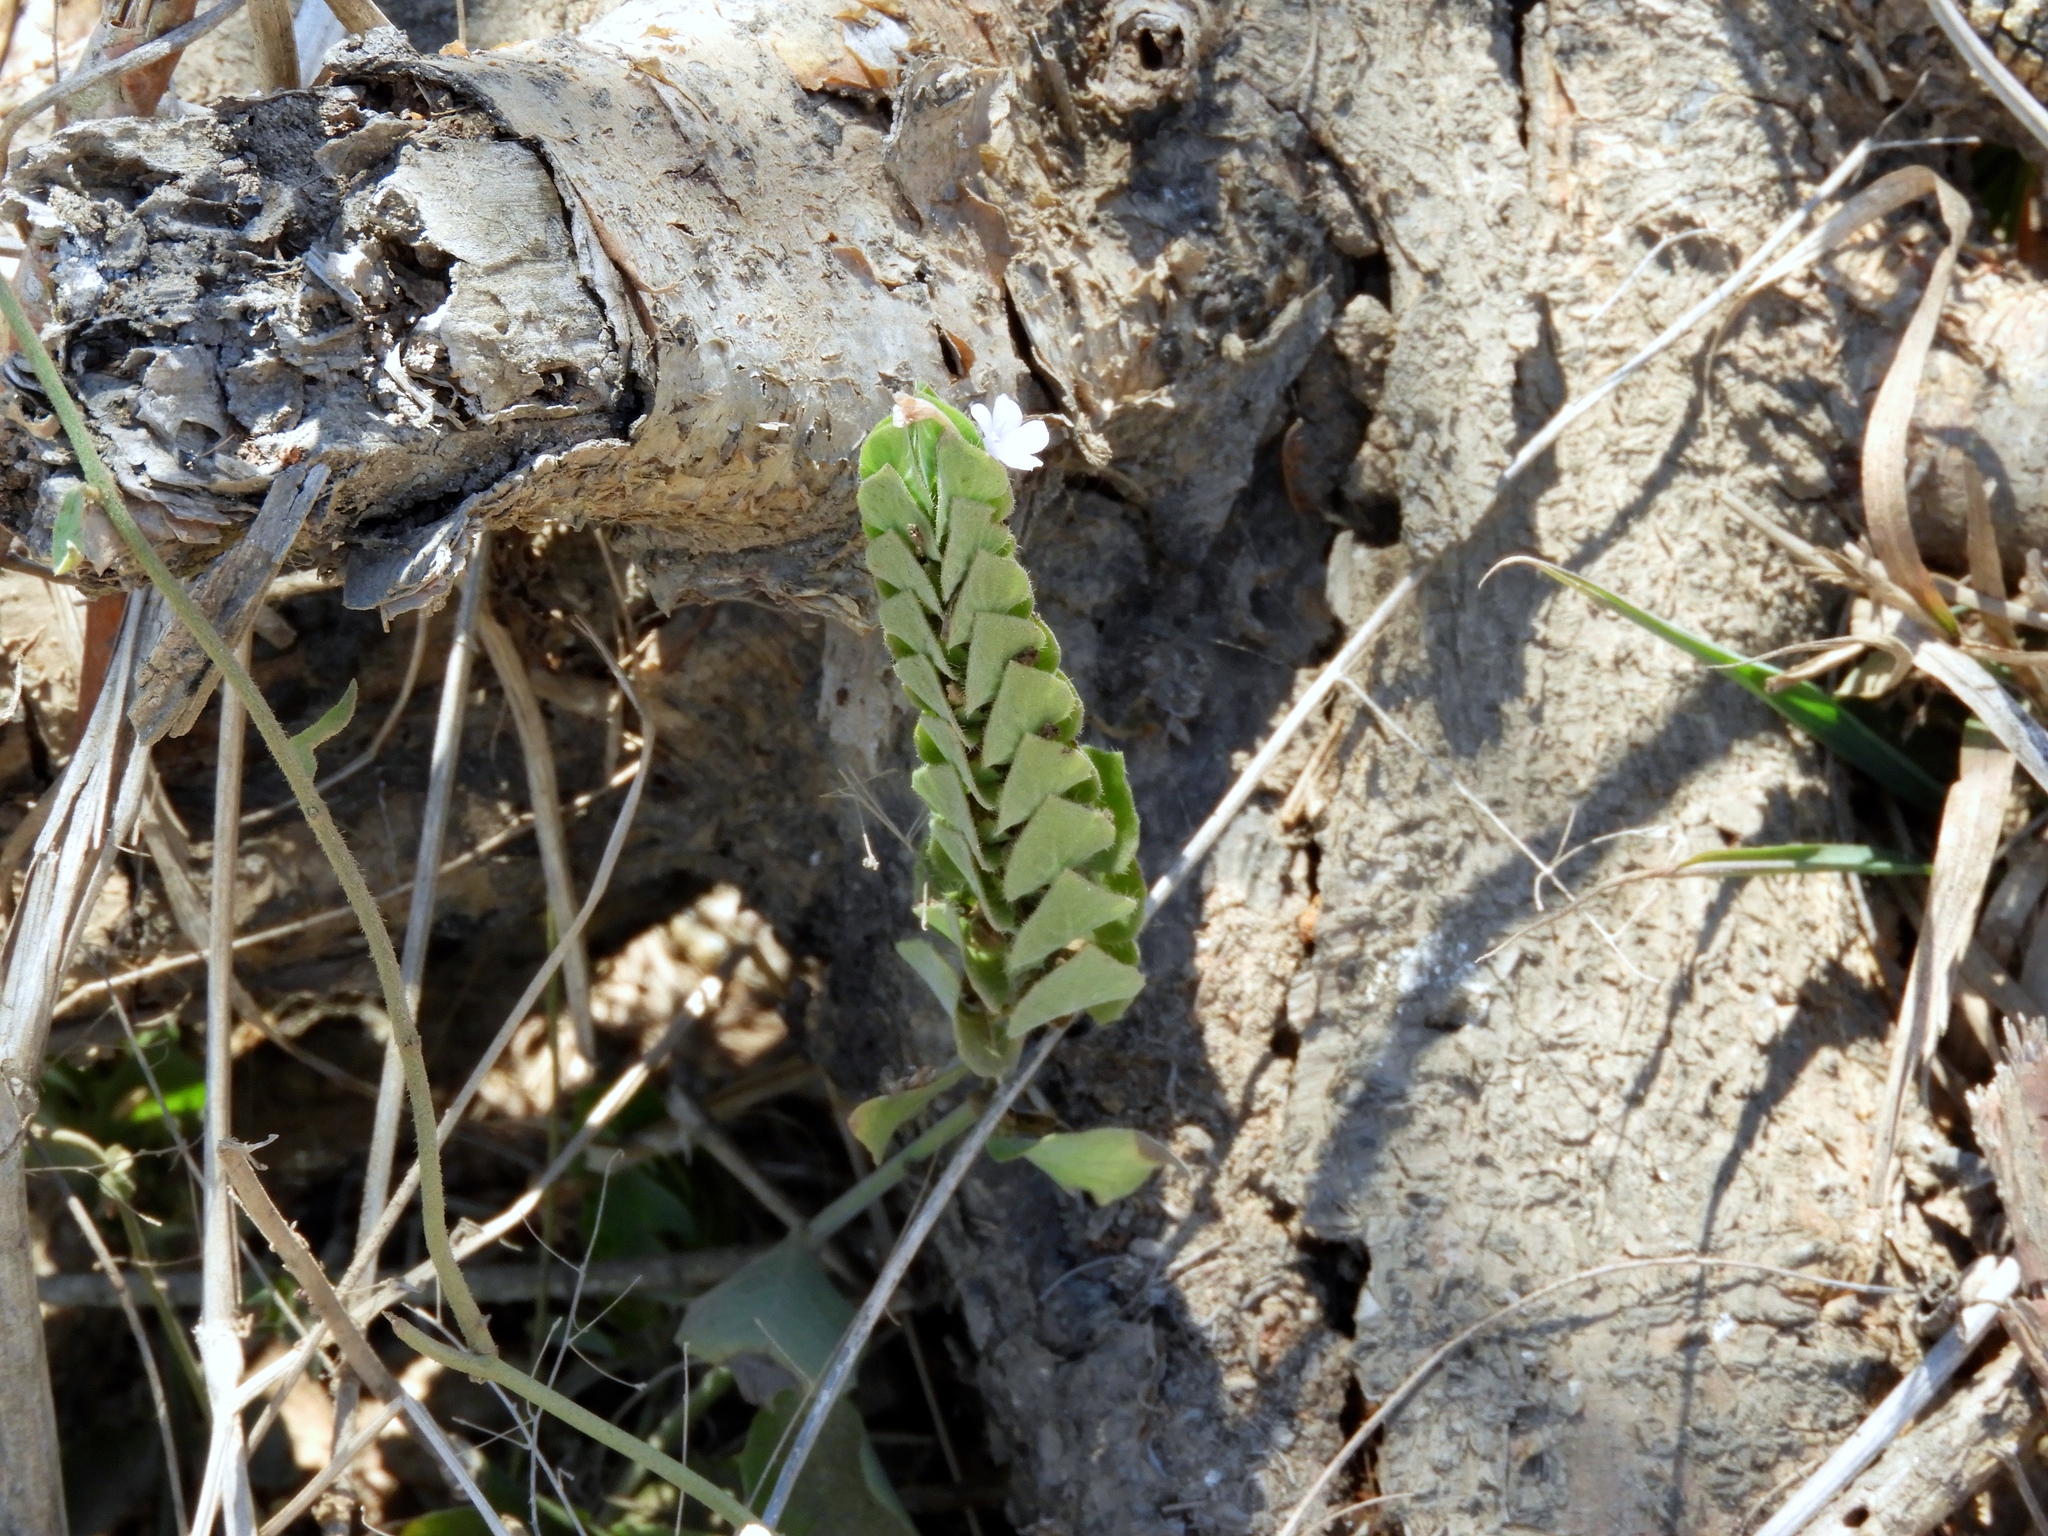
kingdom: Plantae
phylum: Tracheophyta
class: Magnoliopsida
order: Lamiales
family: Acanthaceae
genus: Ruellia
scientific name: Ruellia blechum
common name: Browne's blechum
